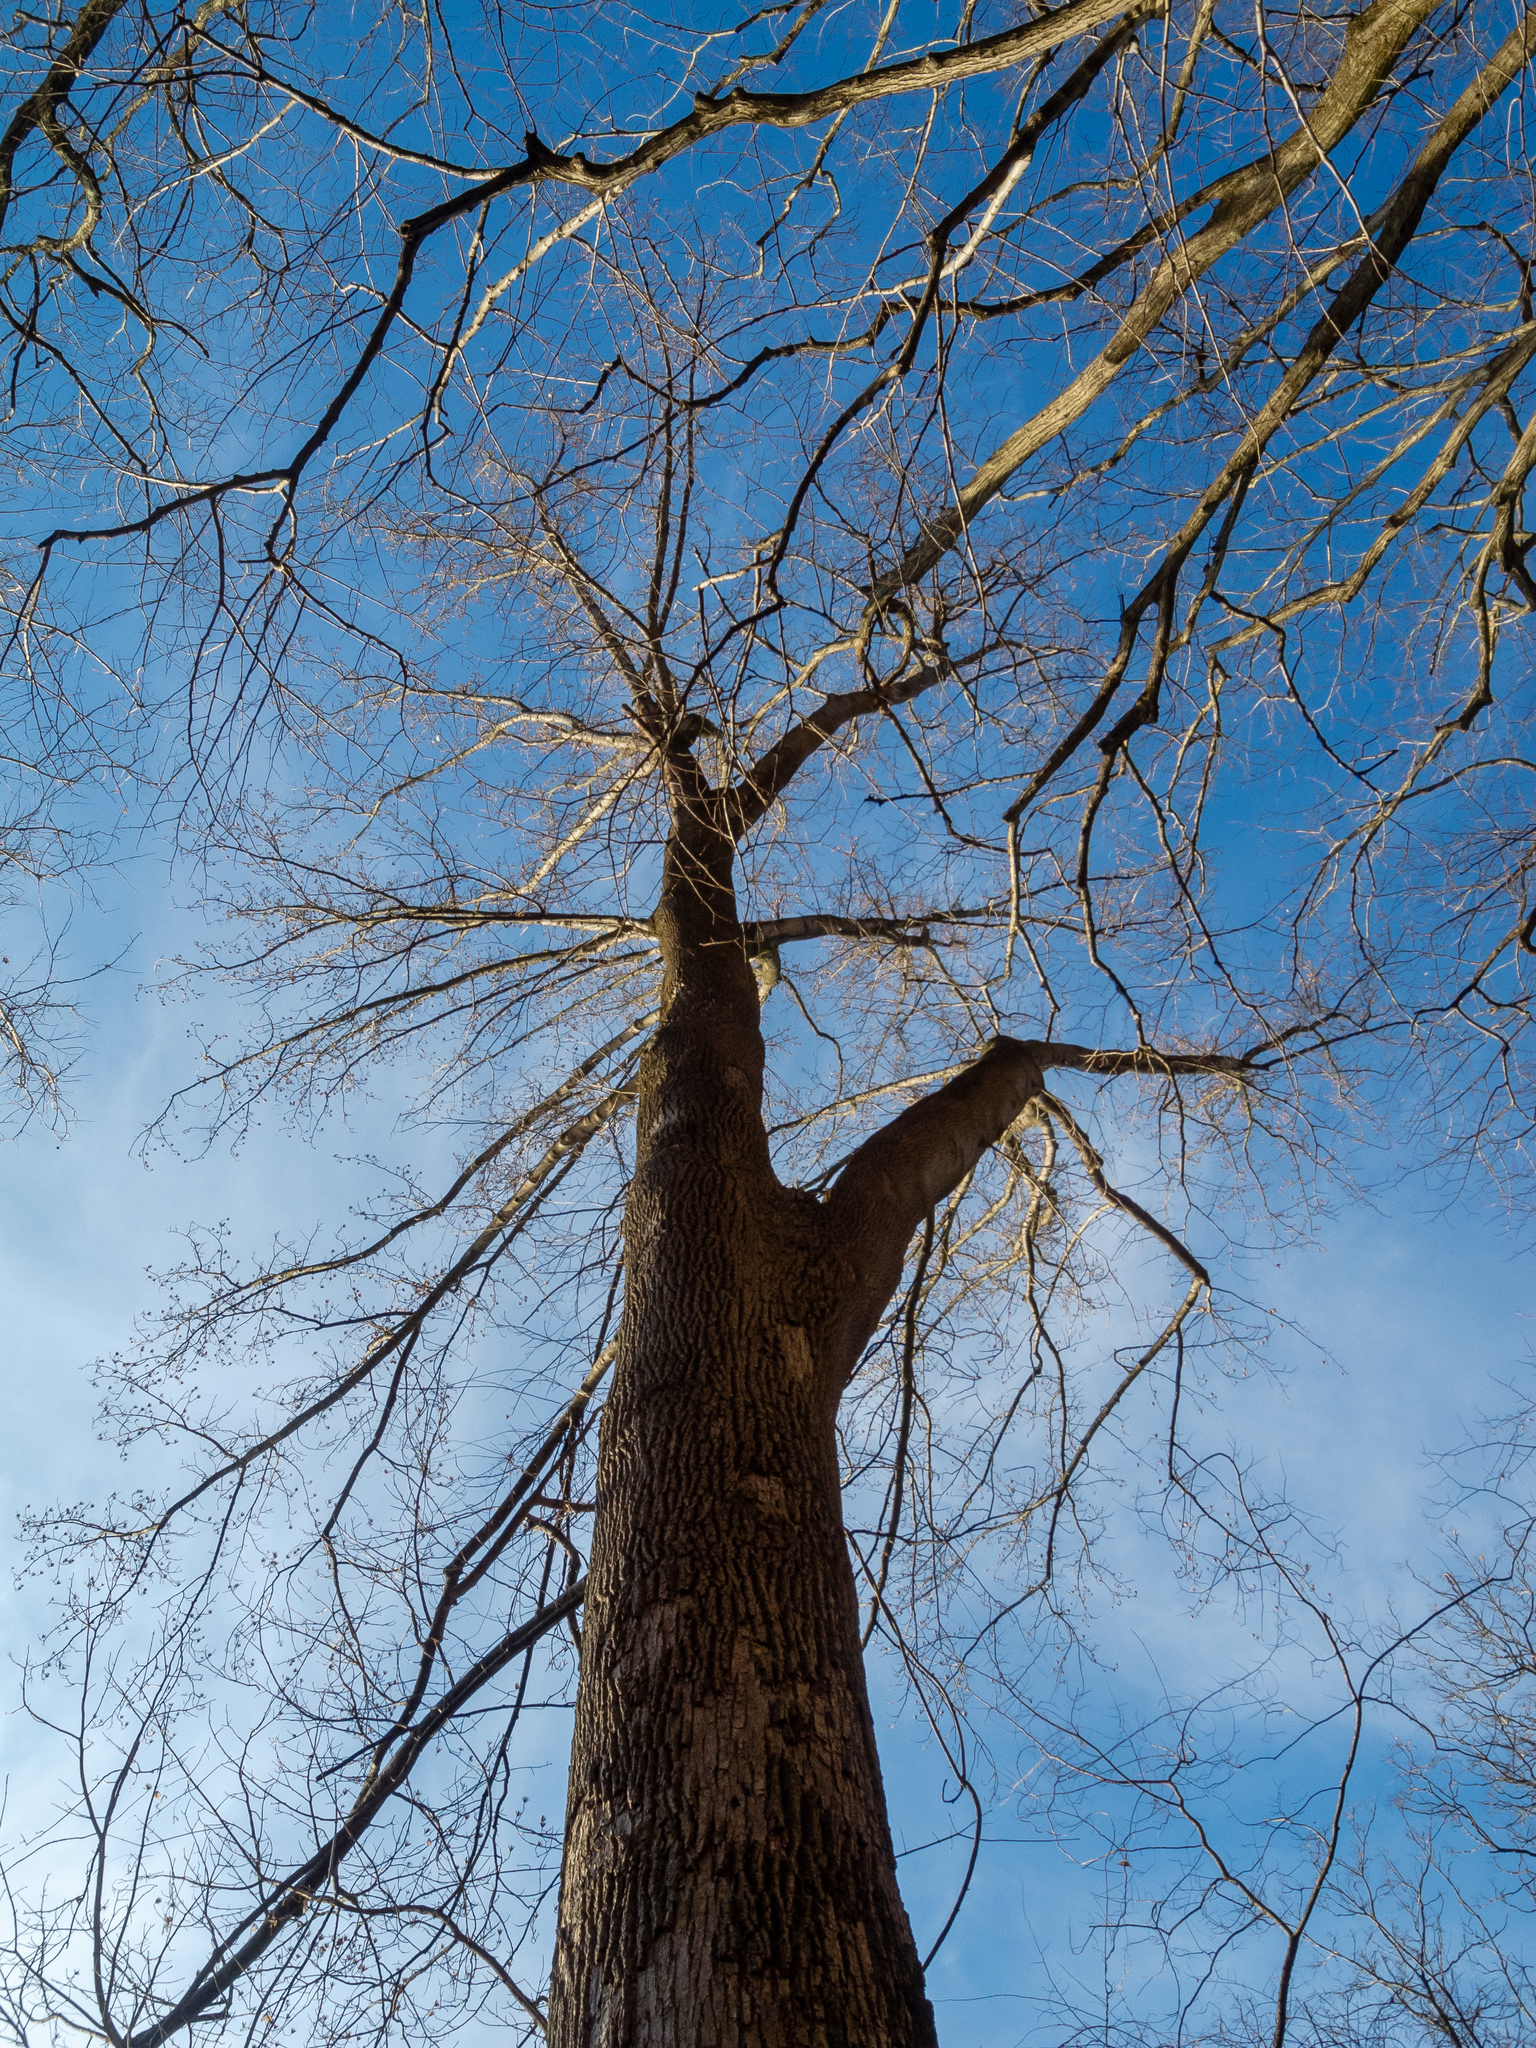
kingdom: Plantae
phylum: Tracheophyta
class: Magnoliopsida
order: Magnoliales
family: Magnoliaceae
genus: Liriodendron
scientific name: Liriodendron tulipifera
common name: Tulip tree
